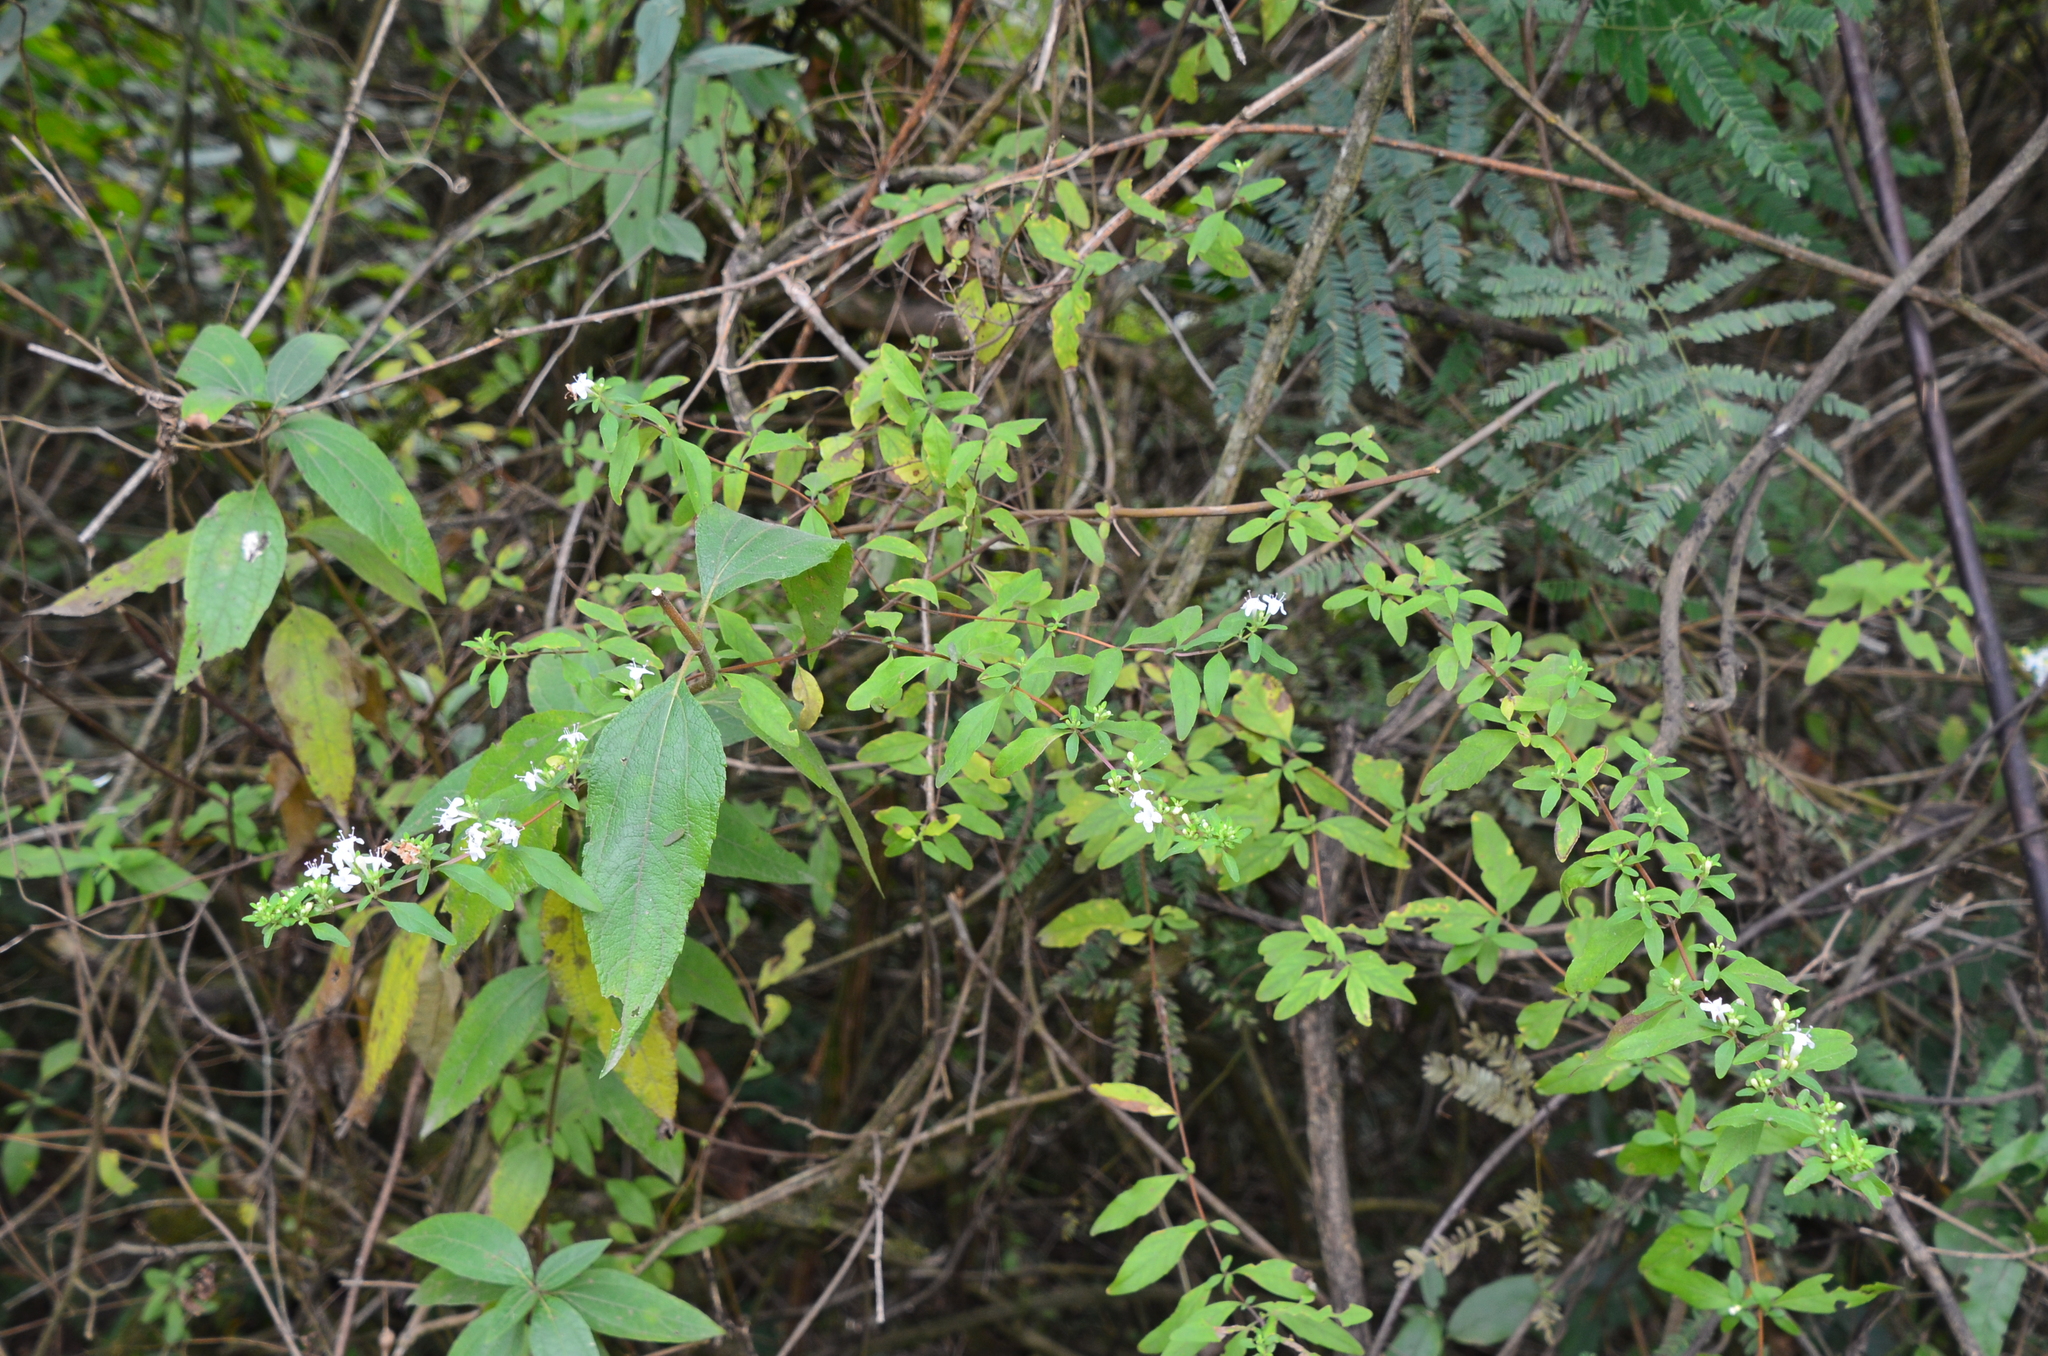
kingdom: Plantae
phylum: Tracheophyta
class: Magnoliopsida
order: Lamiales
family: Lamiaceae
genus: Clinopodium
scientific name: Clinopodium bolivianum
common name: Inca muña
